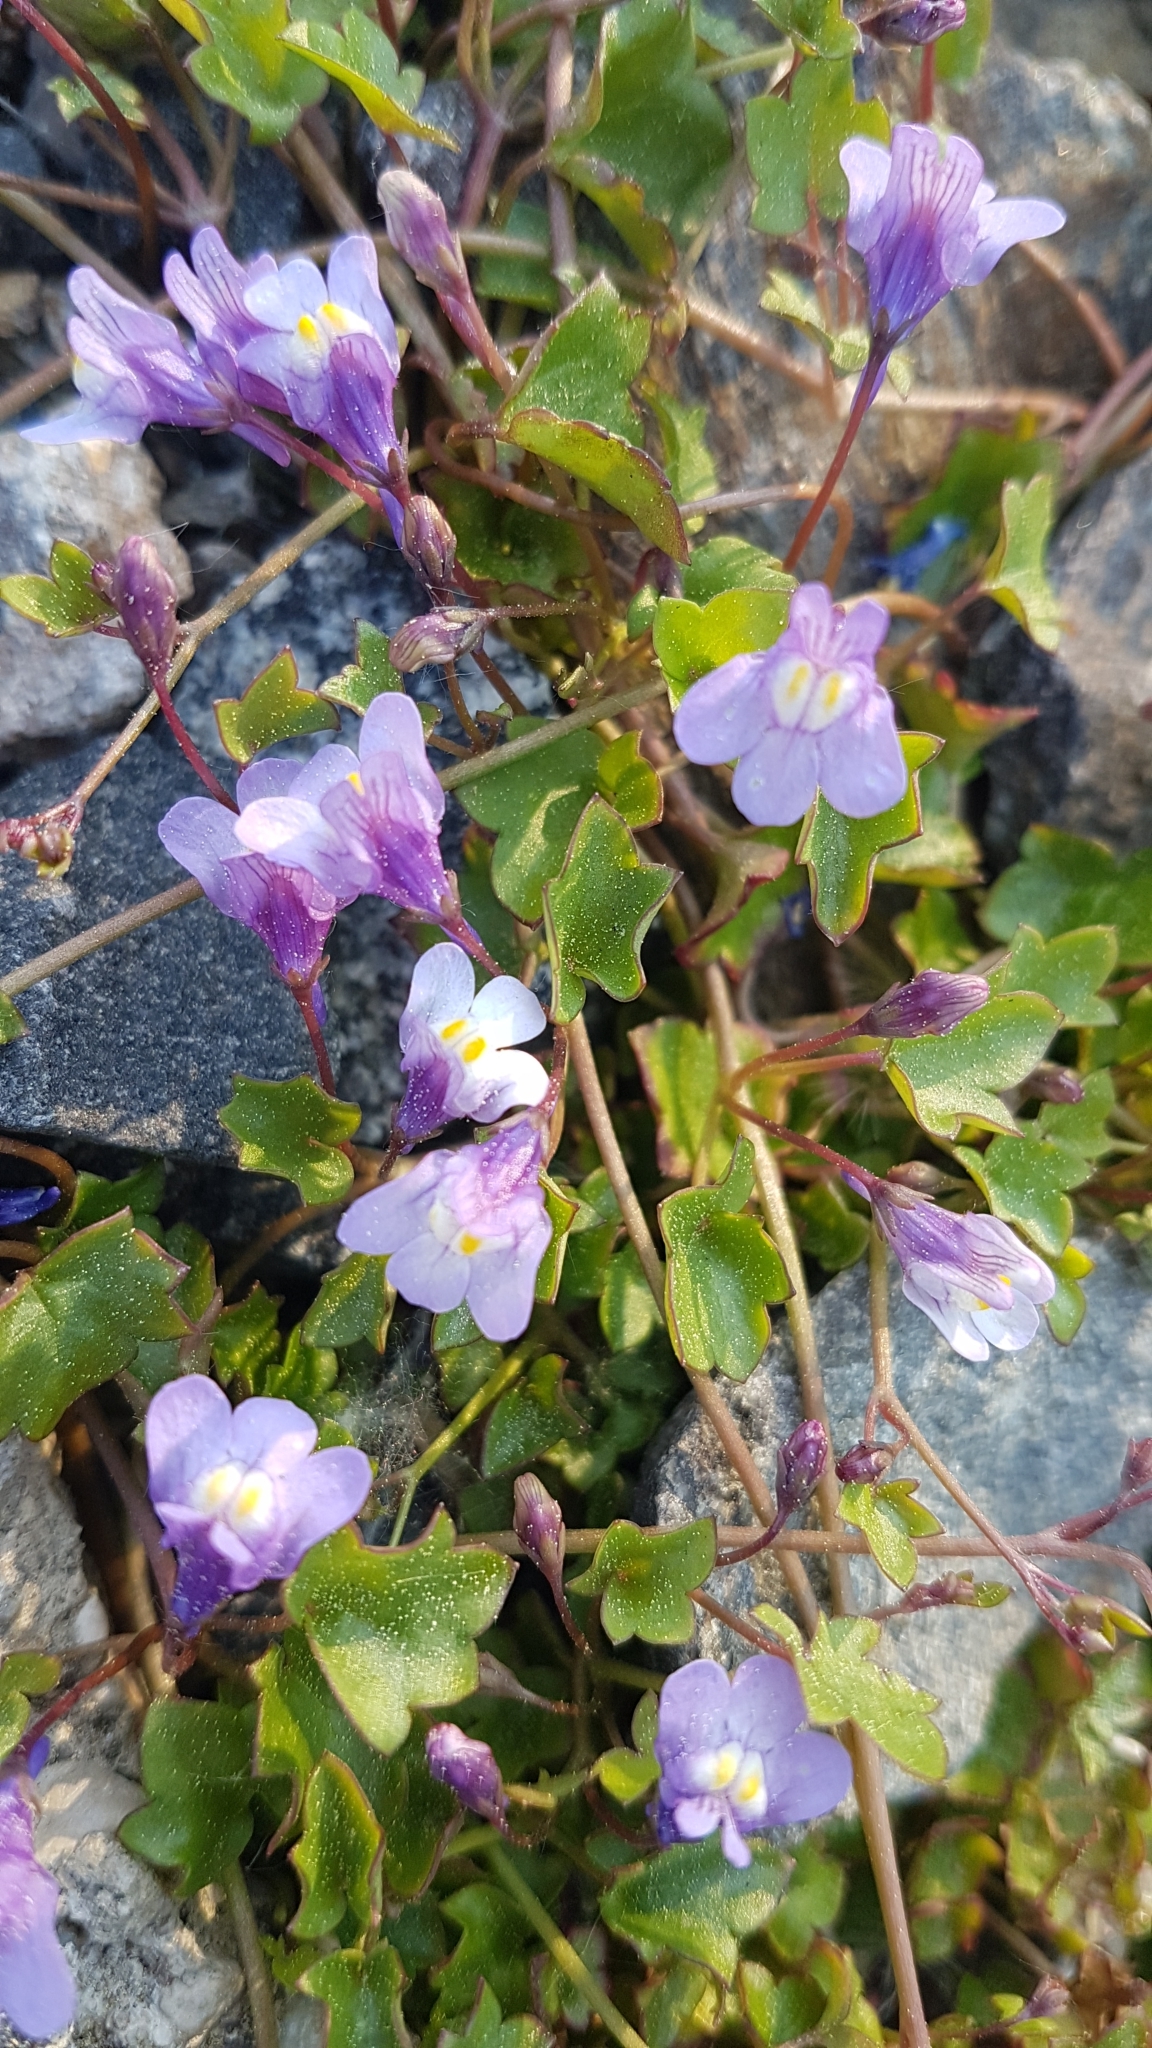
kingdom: Plantae
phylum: Tracheophyta
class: Magnoliopsida
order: Lamiales
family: Plantaginaceae
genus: Cymbalaria
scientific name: Cymbalaria muralis
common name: Ivy-leaved toadflax
